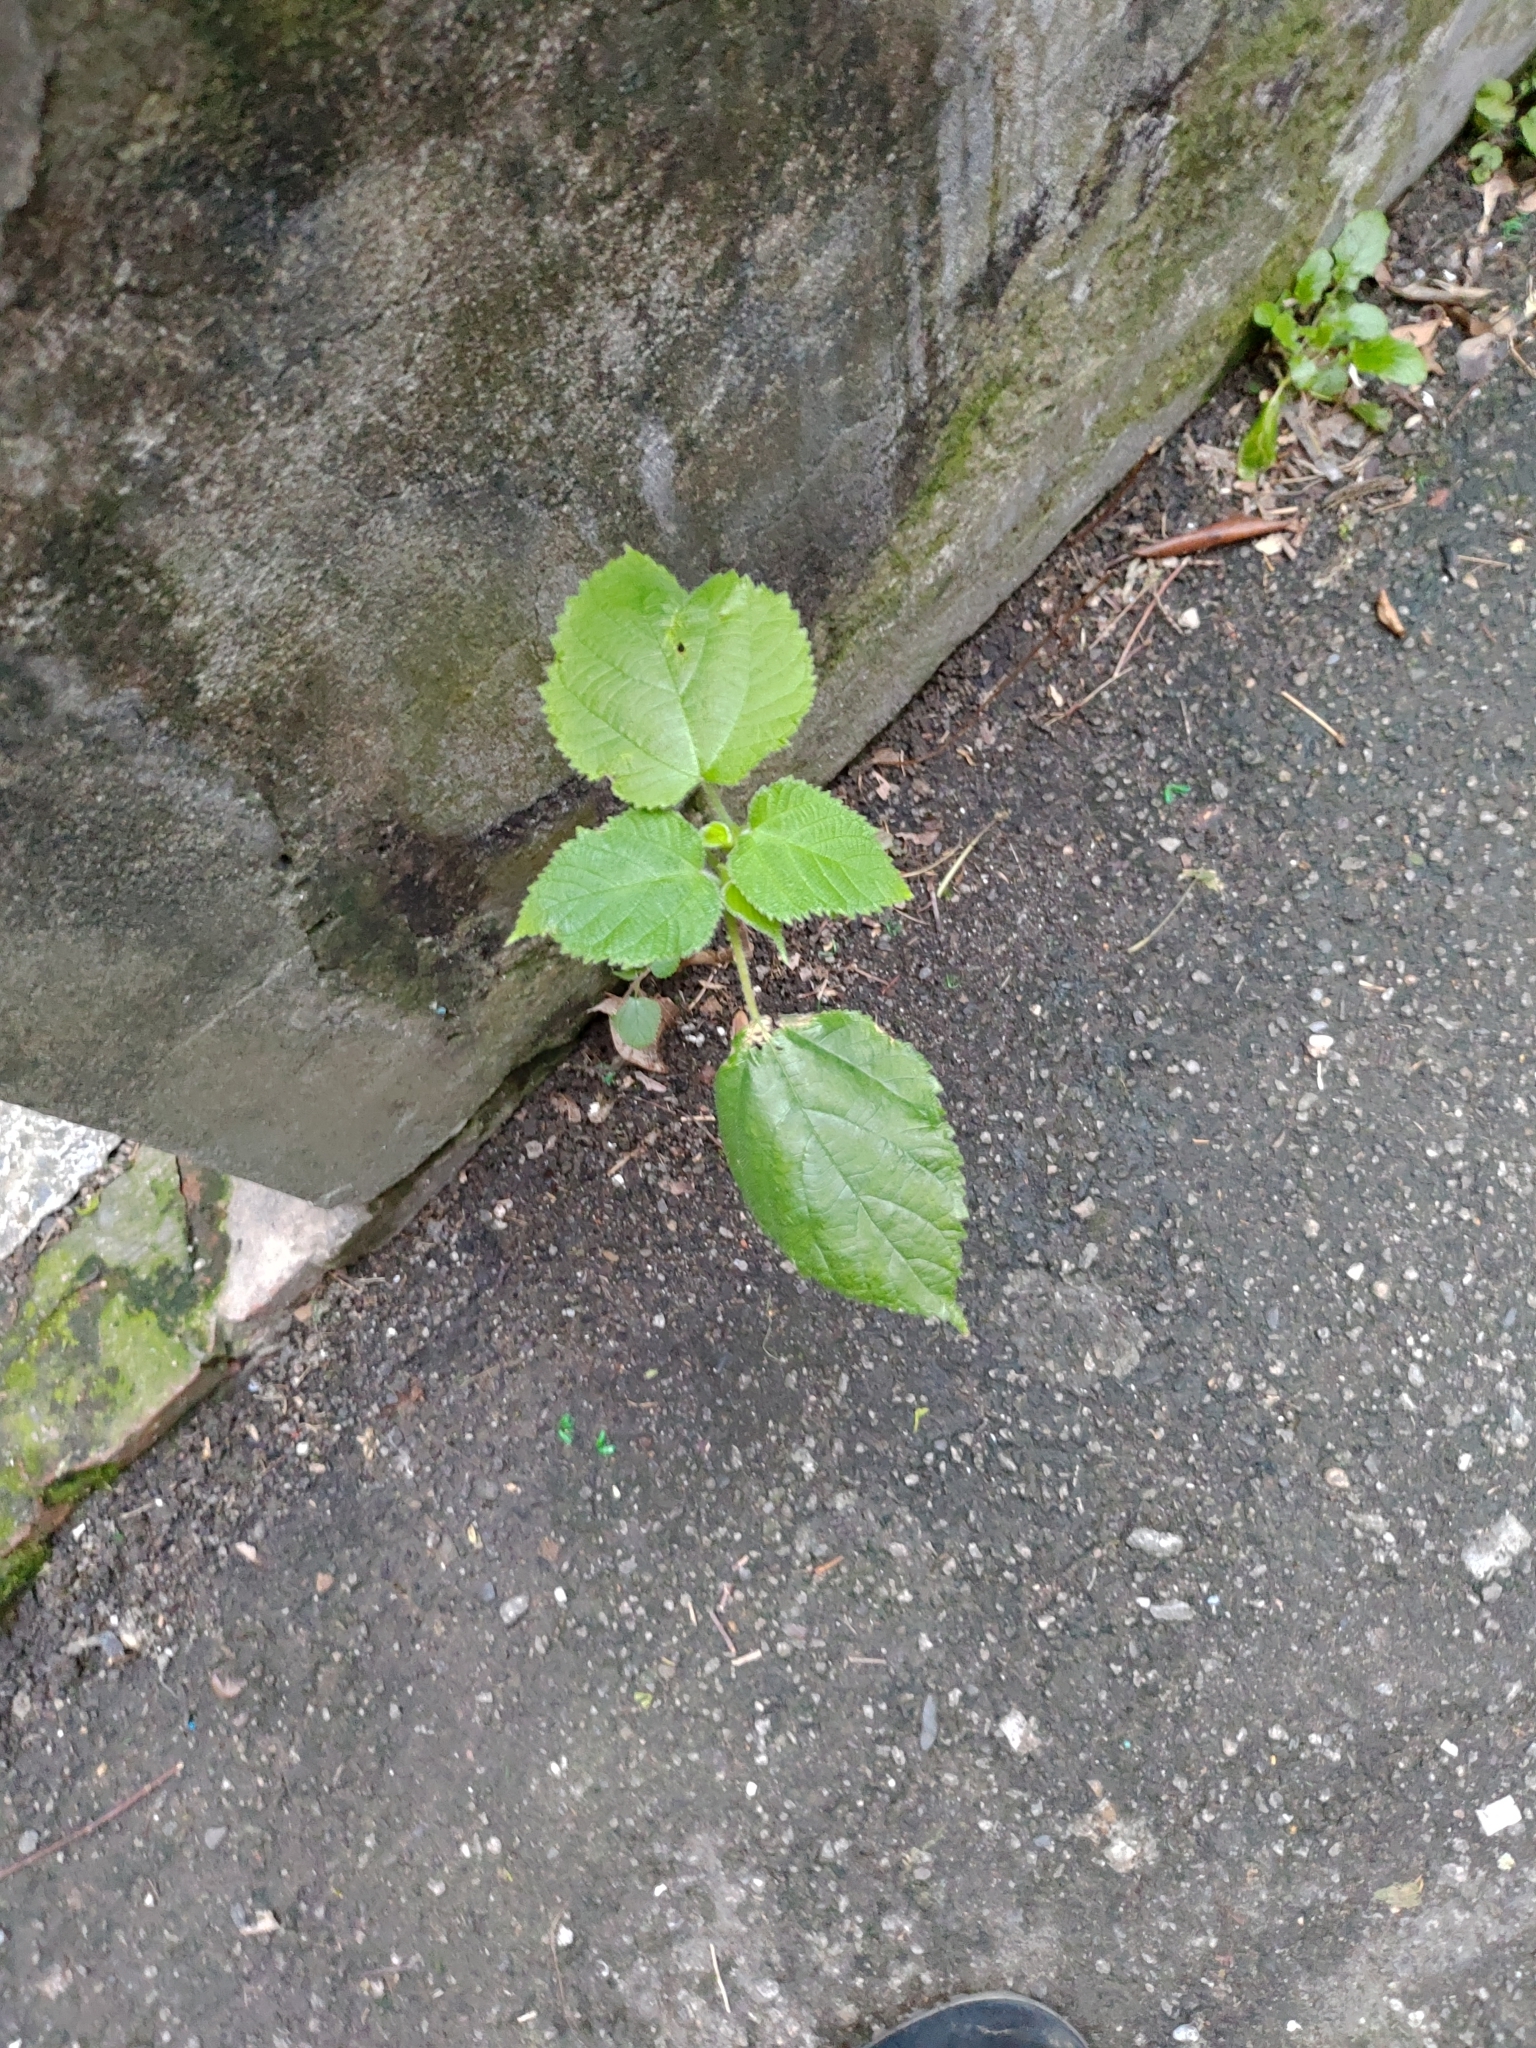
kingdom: Plantae
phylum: Tracheophyta
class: Magnoliopsida
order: Rosales
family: Moraceae
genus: Broussonetia
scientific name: Broussonetia papyrifera
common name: Paper mulberry
